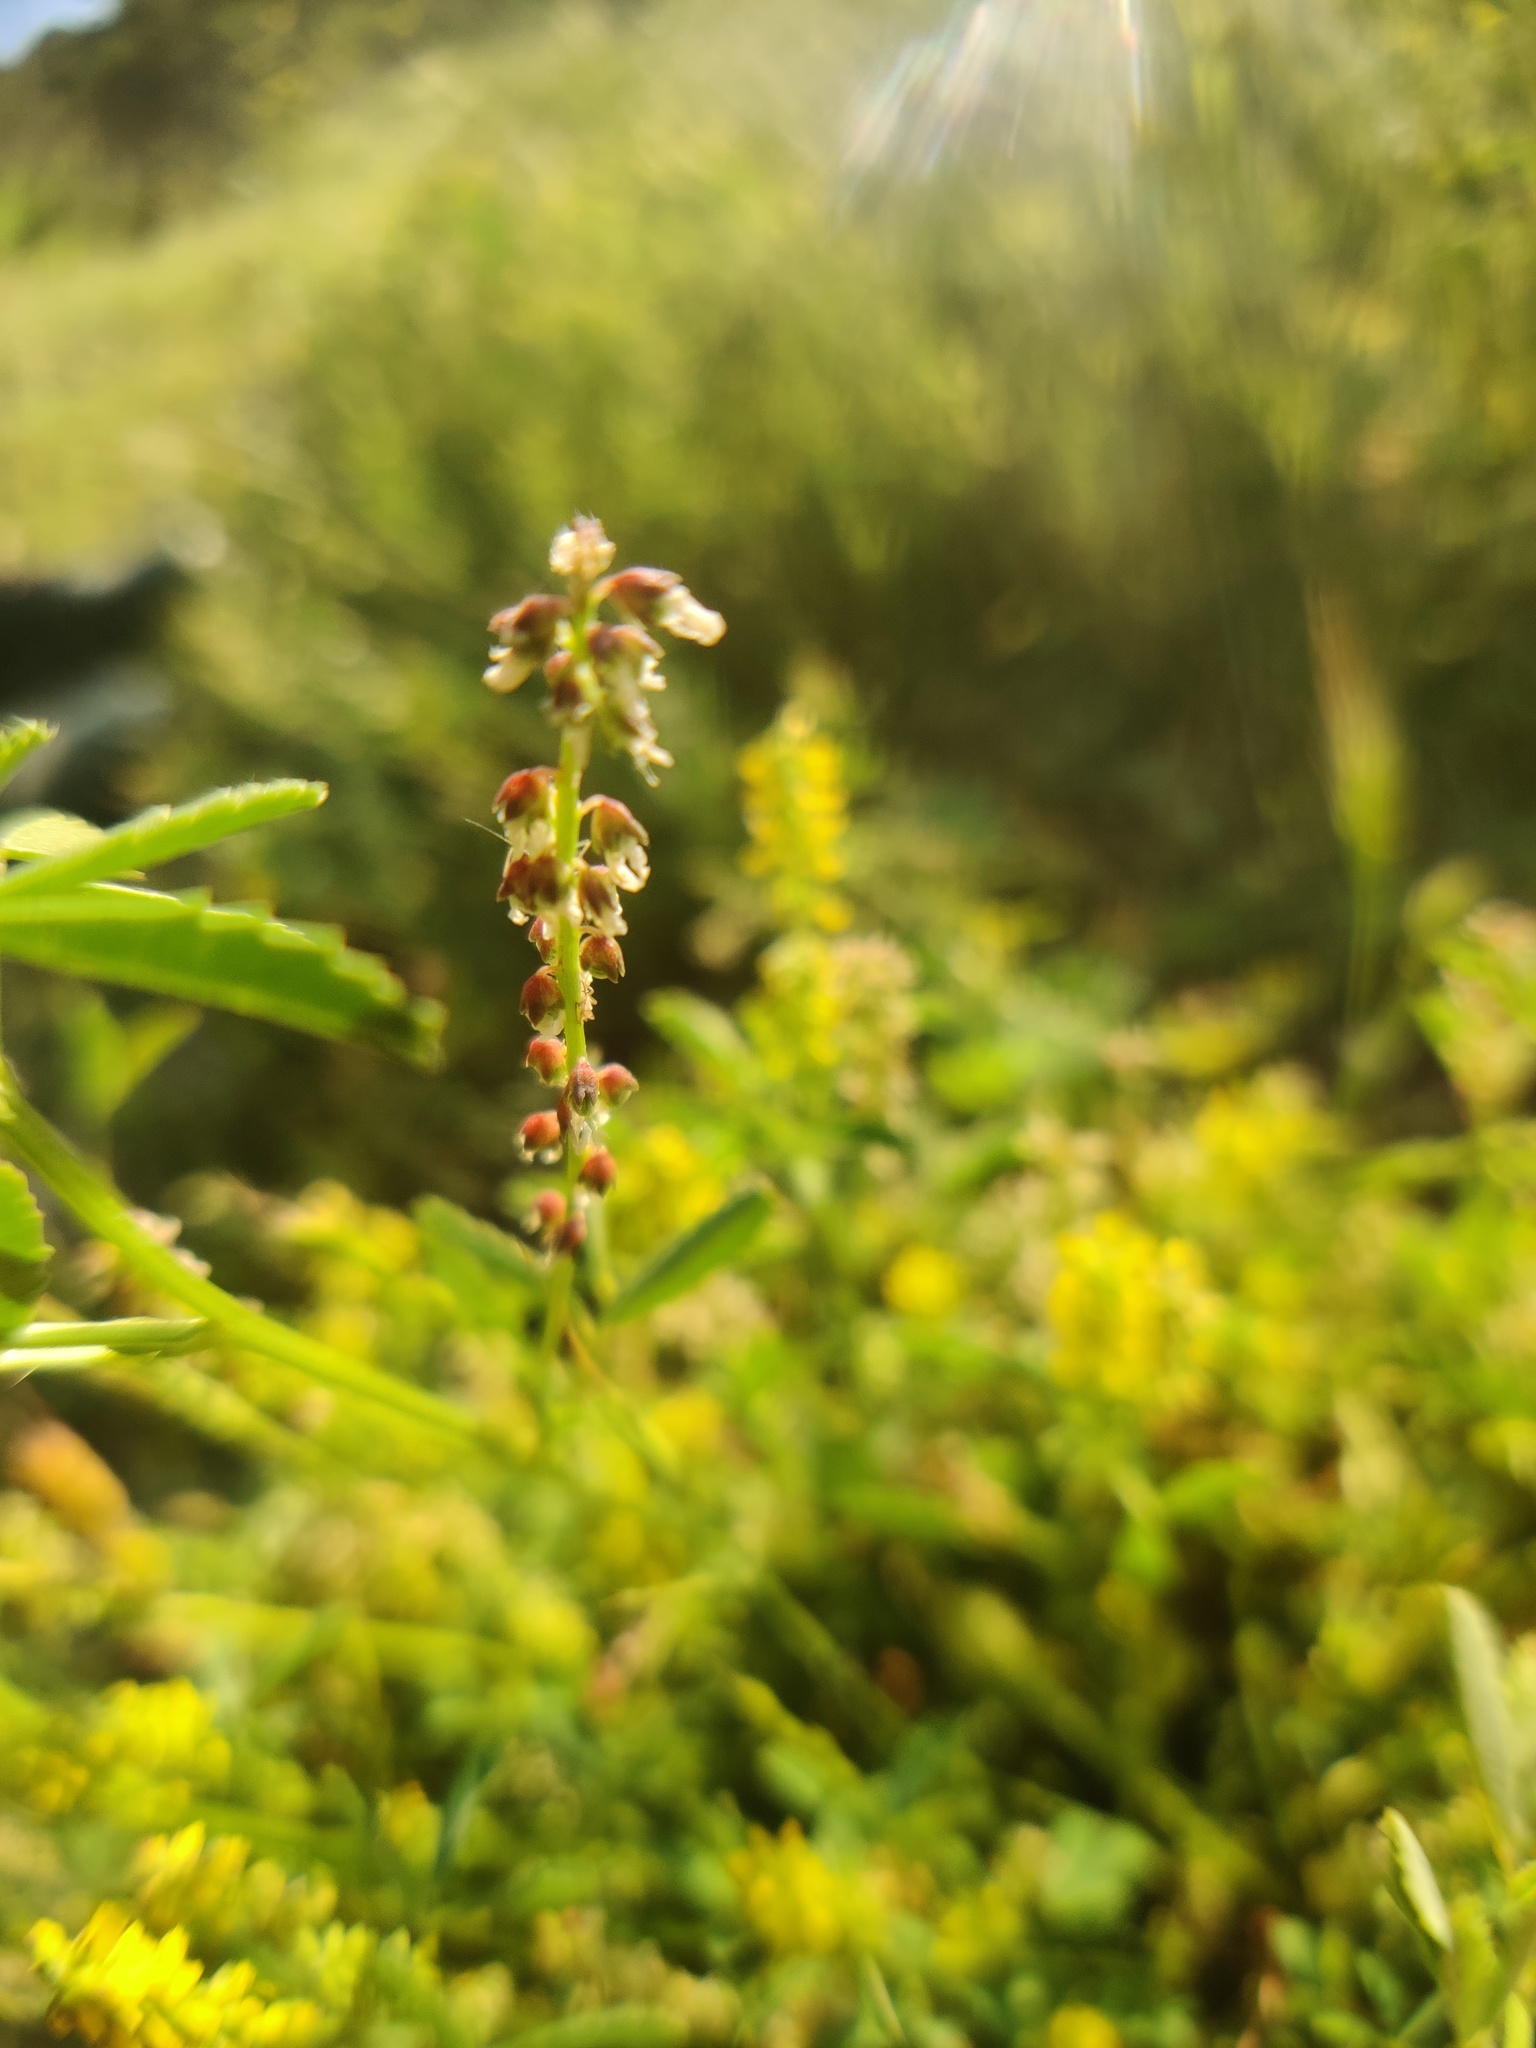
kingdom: Plantae
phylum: Tracheophyta
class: Magnoliopsida
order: Fabales
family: Fabaceae
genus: Melilotus
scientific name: Melilotus indicus
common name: Small melilot
